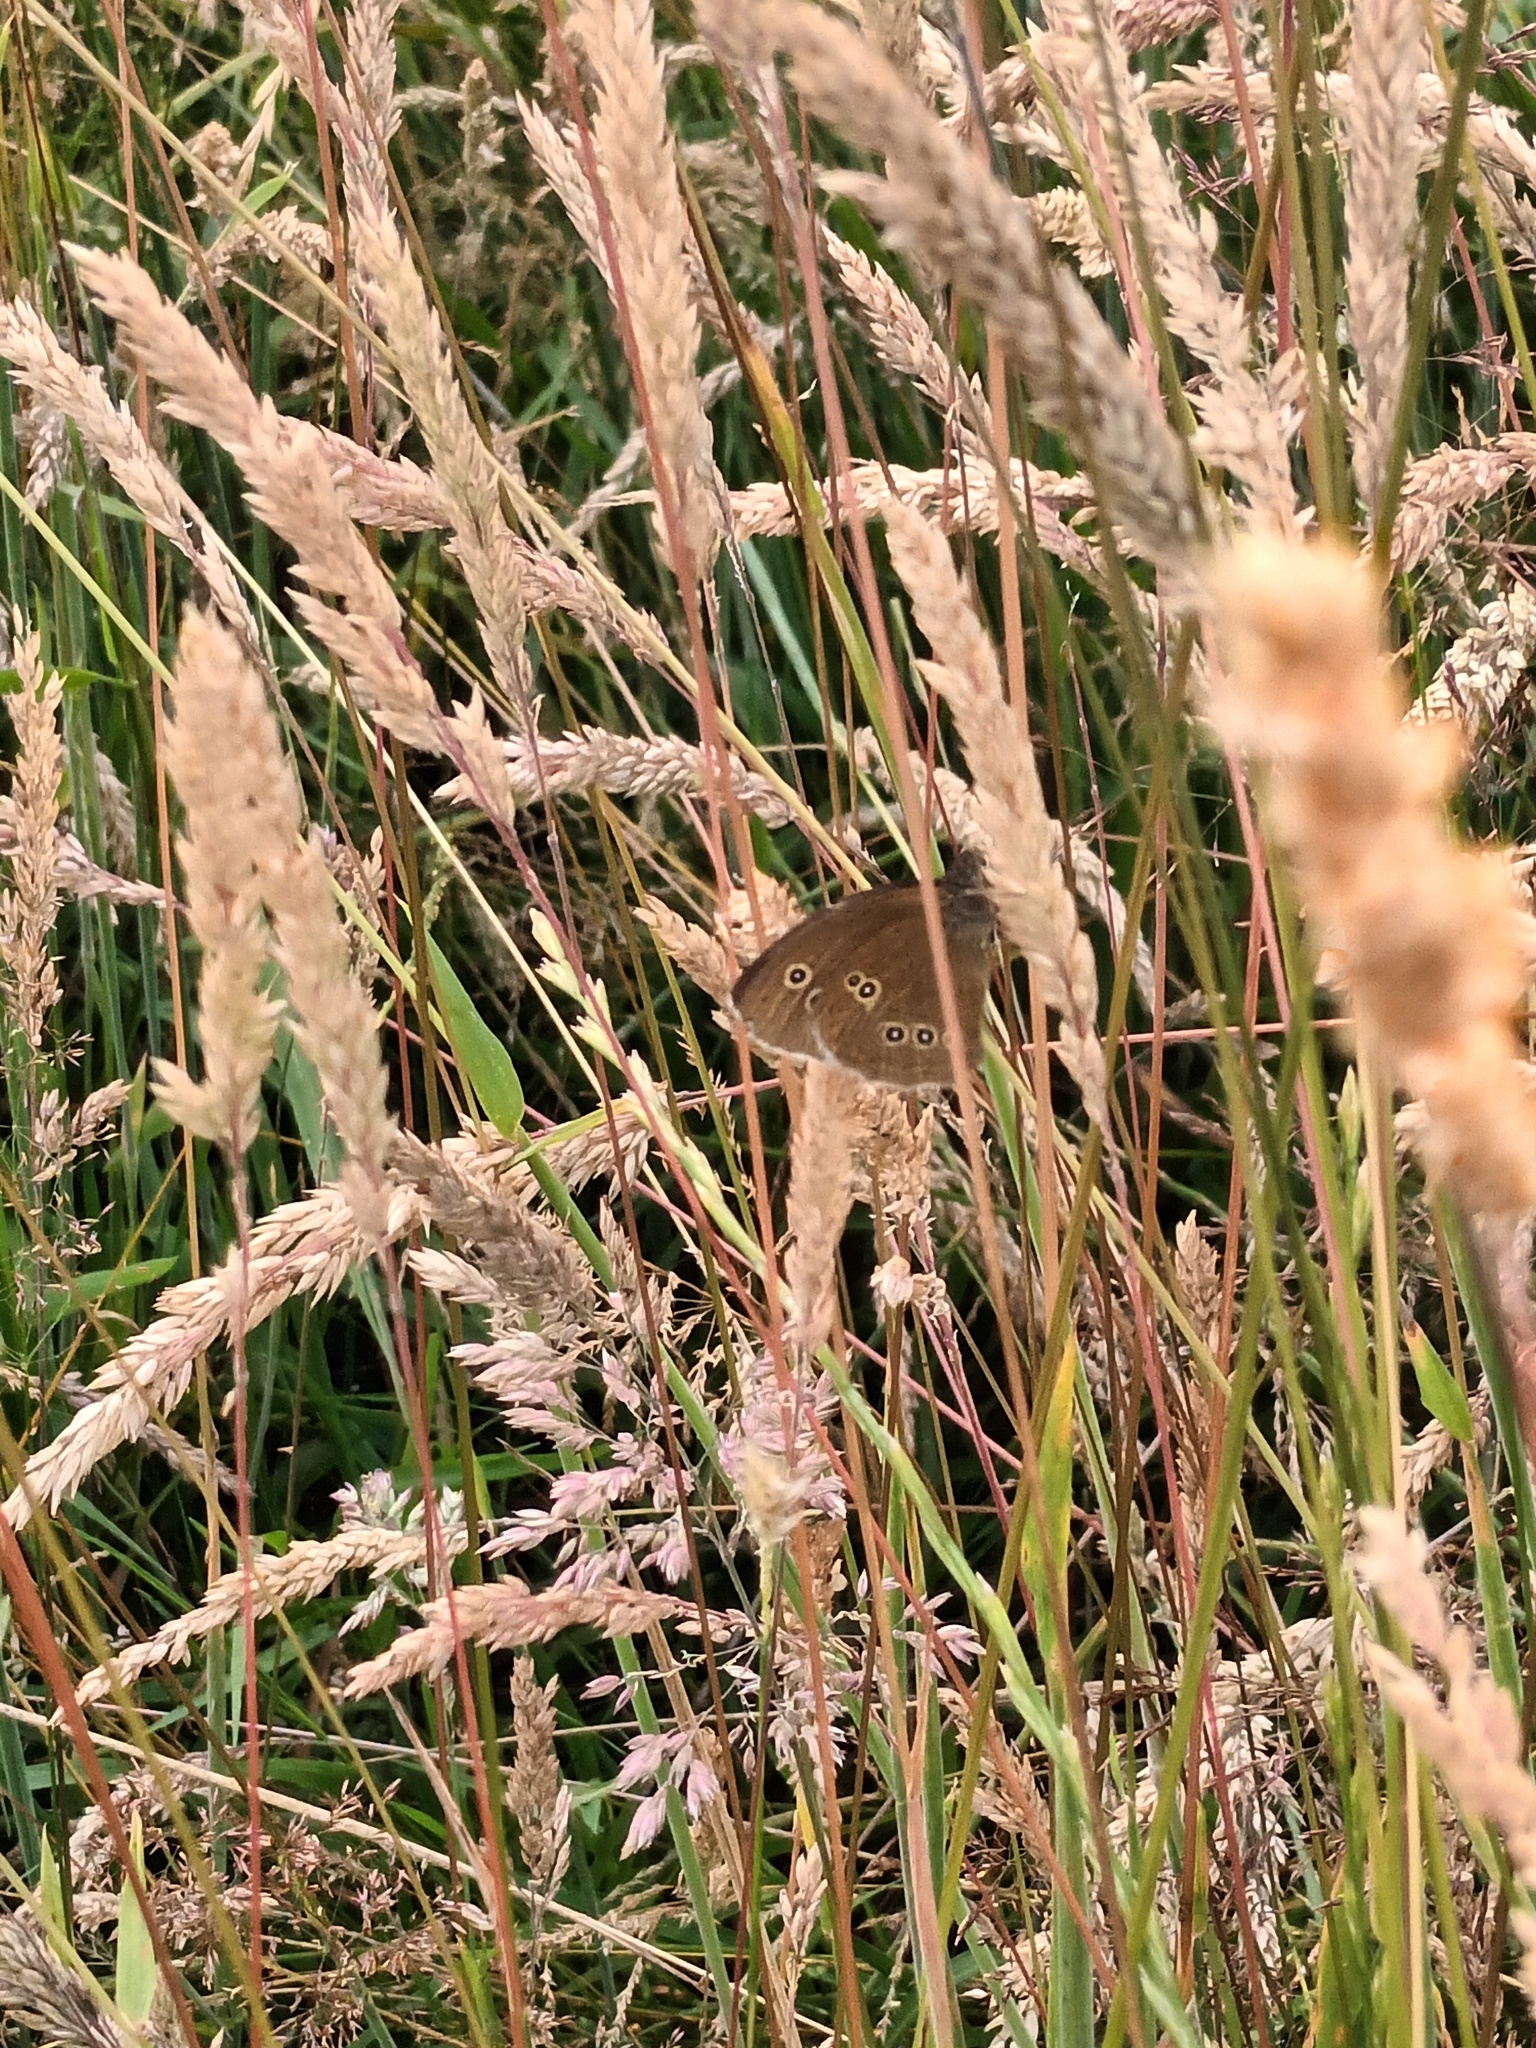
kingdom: Animalia
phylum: Arthropoda
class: Insecta
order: Lepidoptera
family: Nymphalidae
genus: Aphantopus
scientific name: Aphantopus hyperantus
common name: Ringlet
